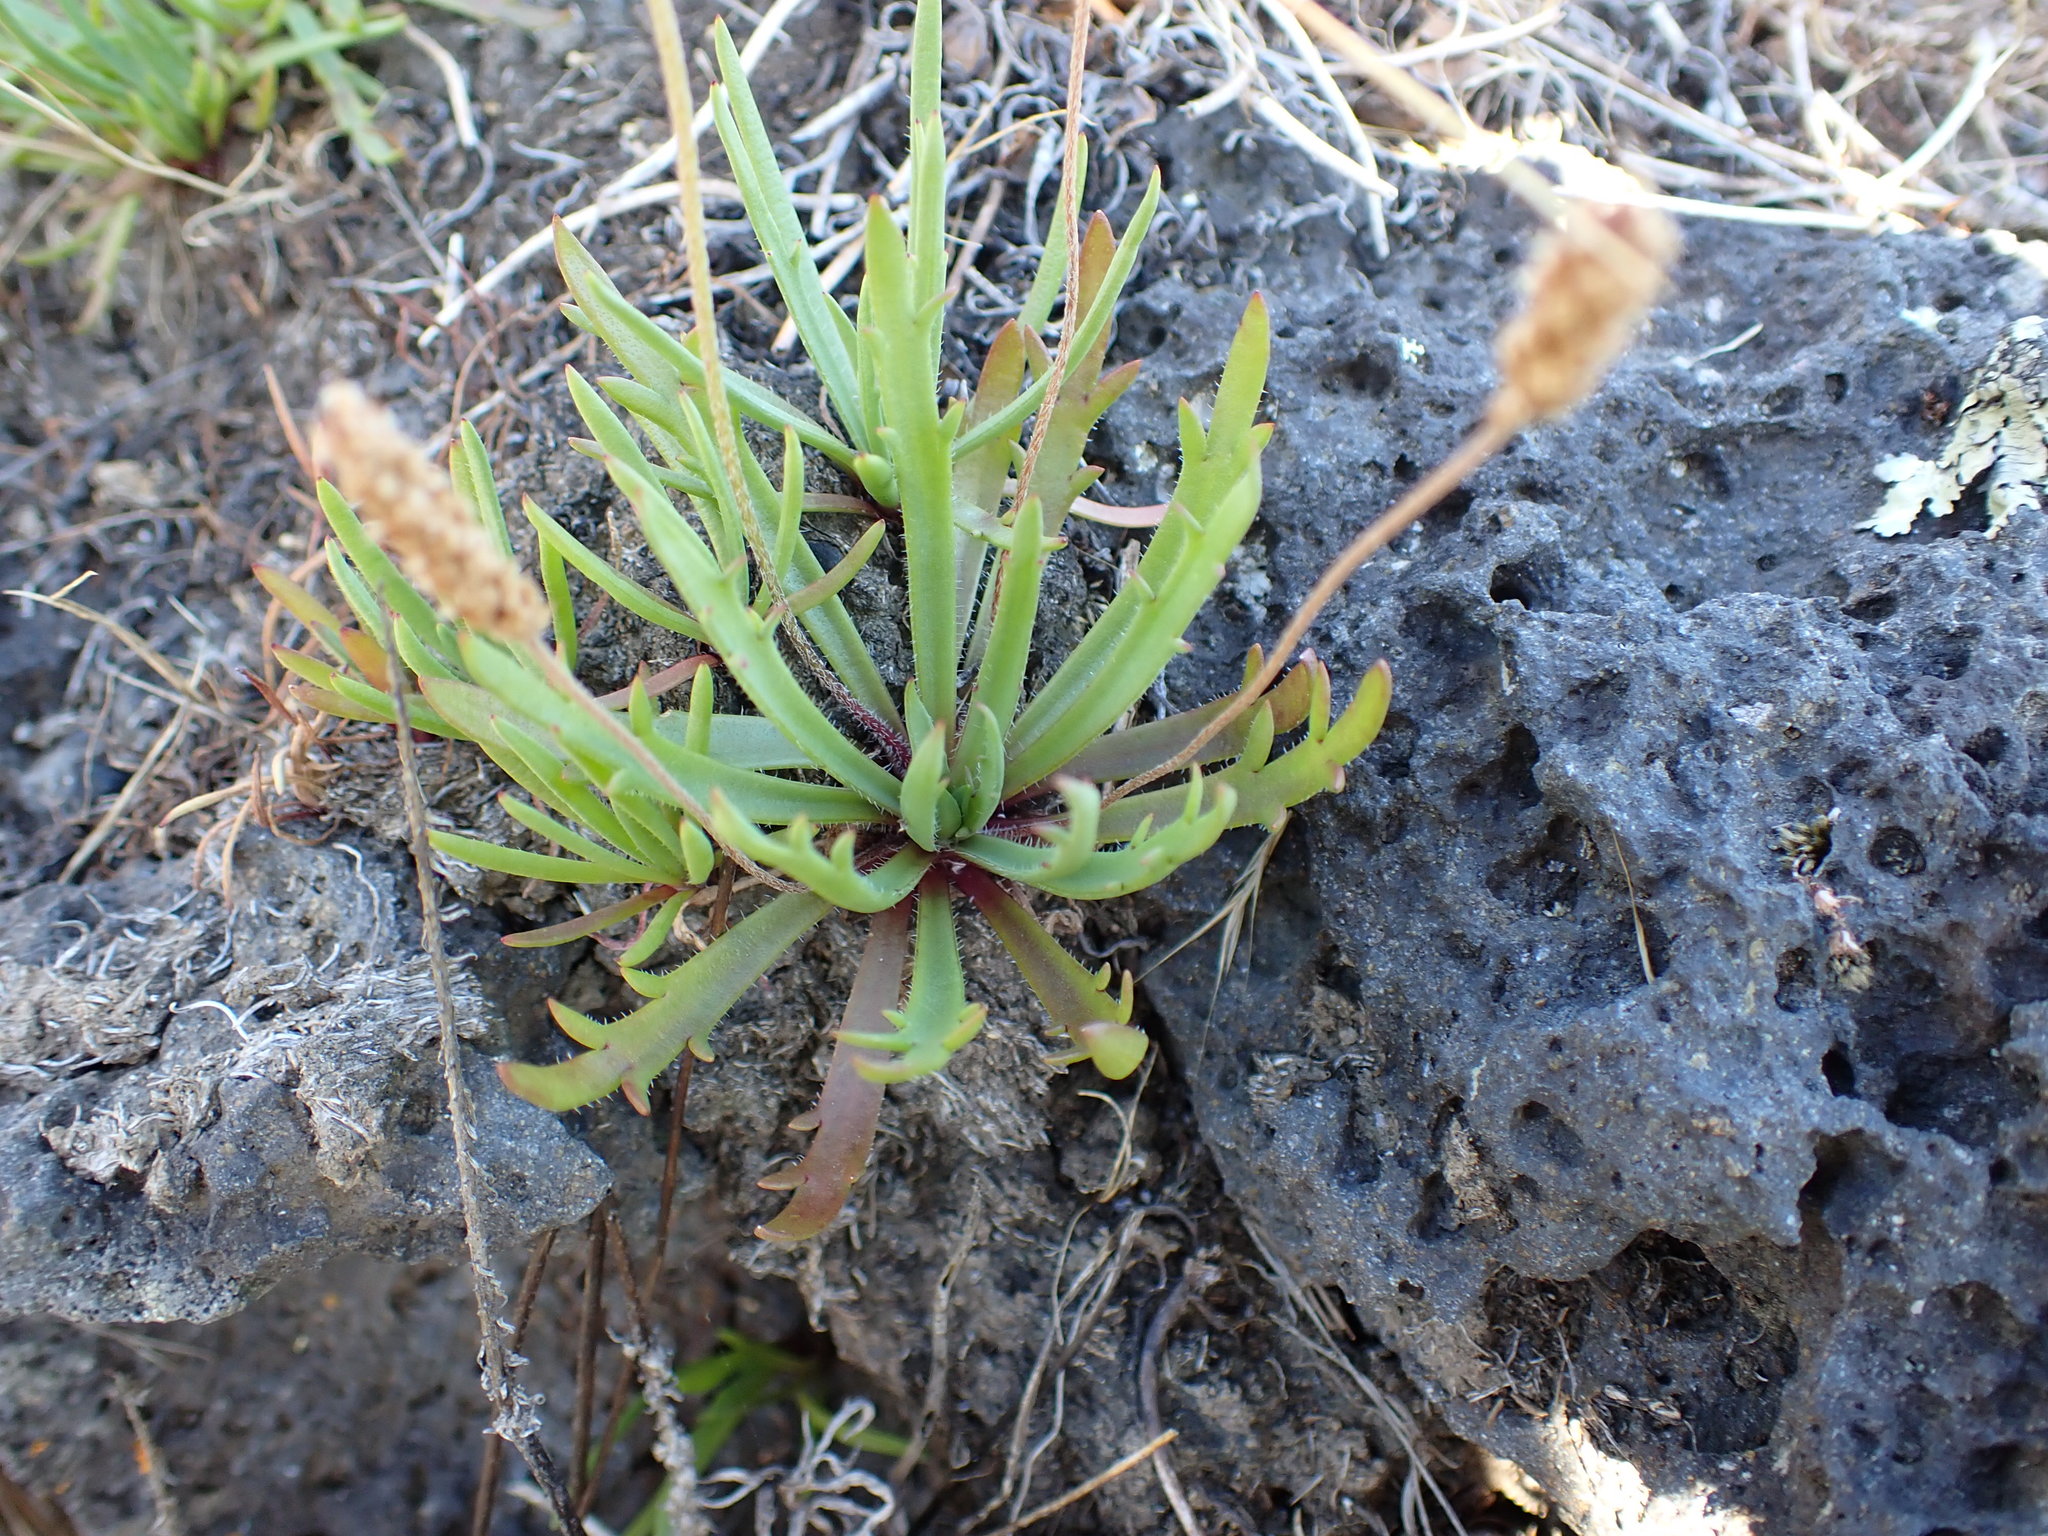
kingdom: Plantae
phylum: Tracheophyta
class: Magnoliopsida
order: Lamiales
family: Plantaginaceae
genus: Plantago
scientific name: Plantago coronopus
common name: Buck's-horn plantain
